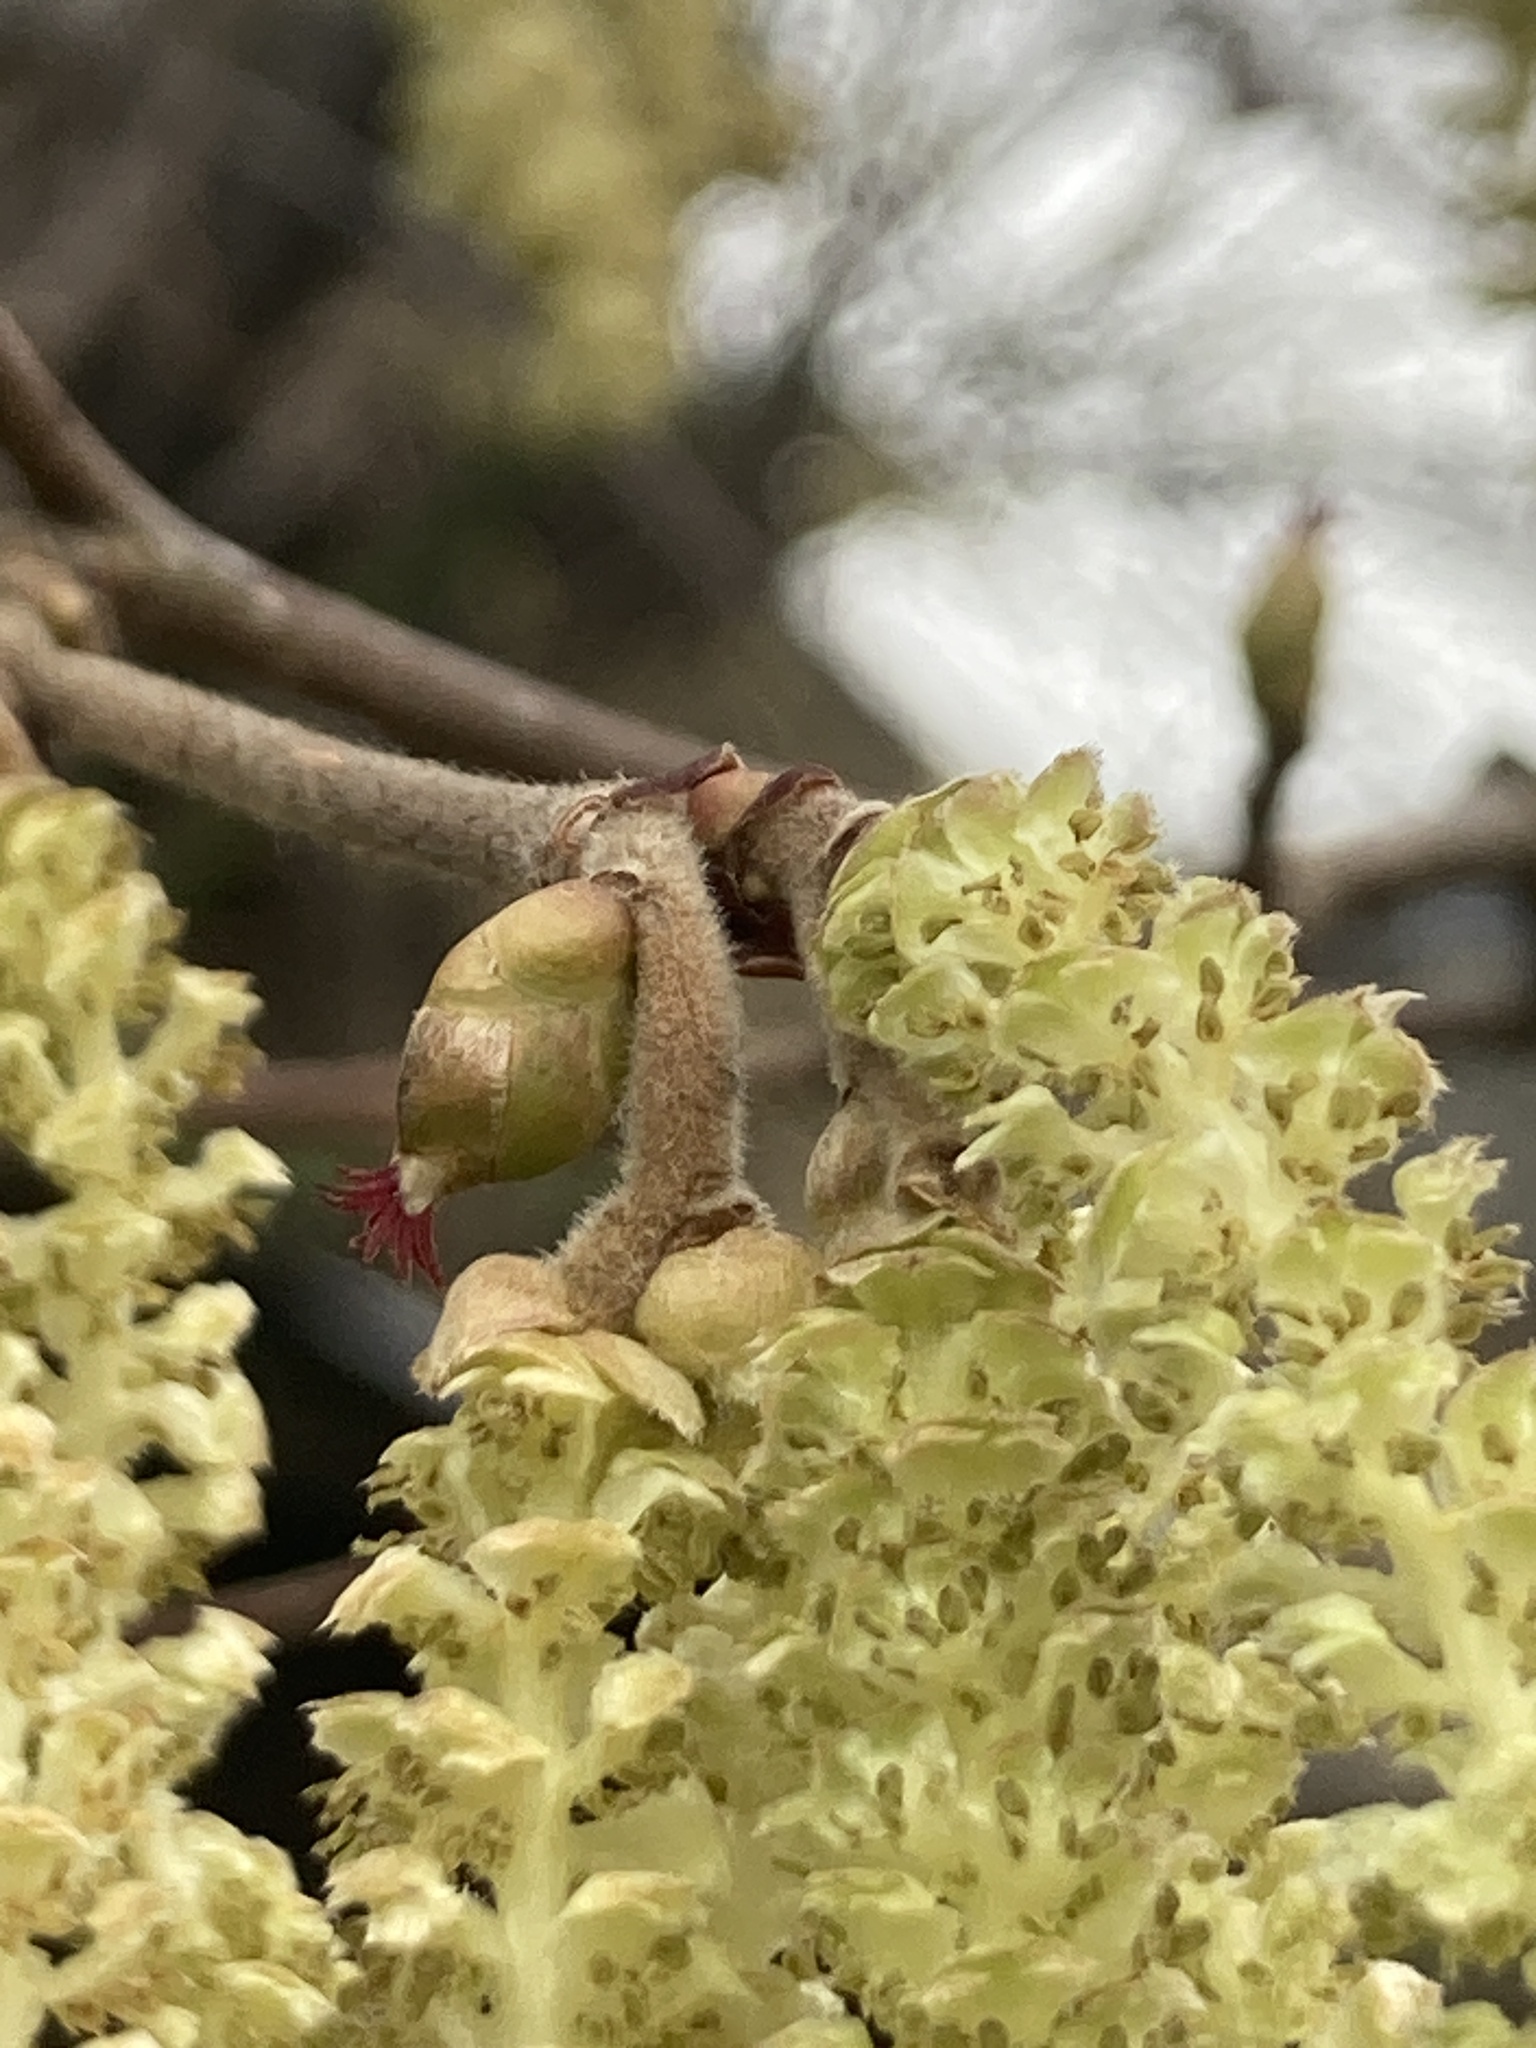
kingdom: Plantae
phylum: Tracheophyta
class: Magnoliopsida
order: Fagales
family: Betulaceae
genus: Corylus
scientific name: Corylus avellana
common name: European hazel
